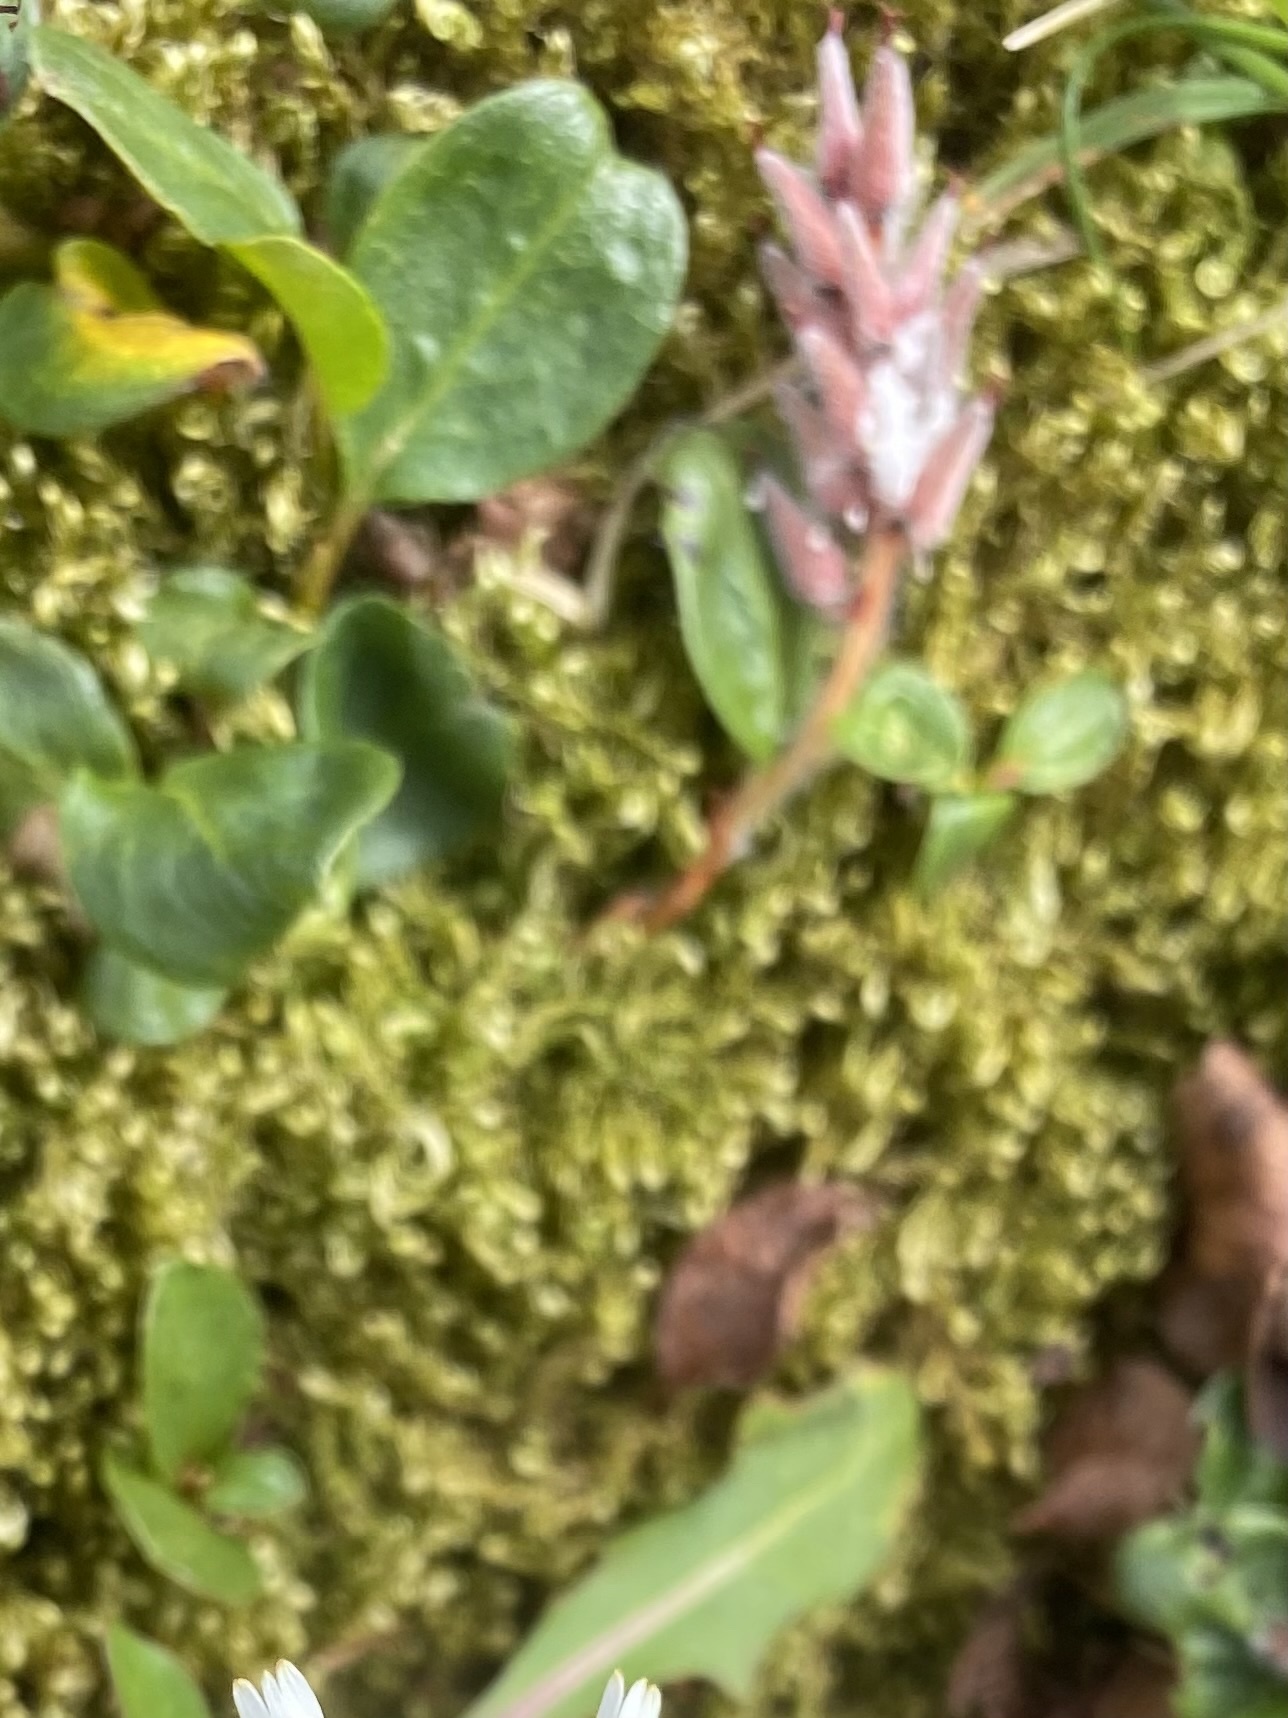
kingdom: Plantae
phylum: Tracheophyta
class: Magnoliopsida
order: Malpighiales
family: Salicaceae
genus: Salix
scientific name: Salix polaris
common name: Polar willow
